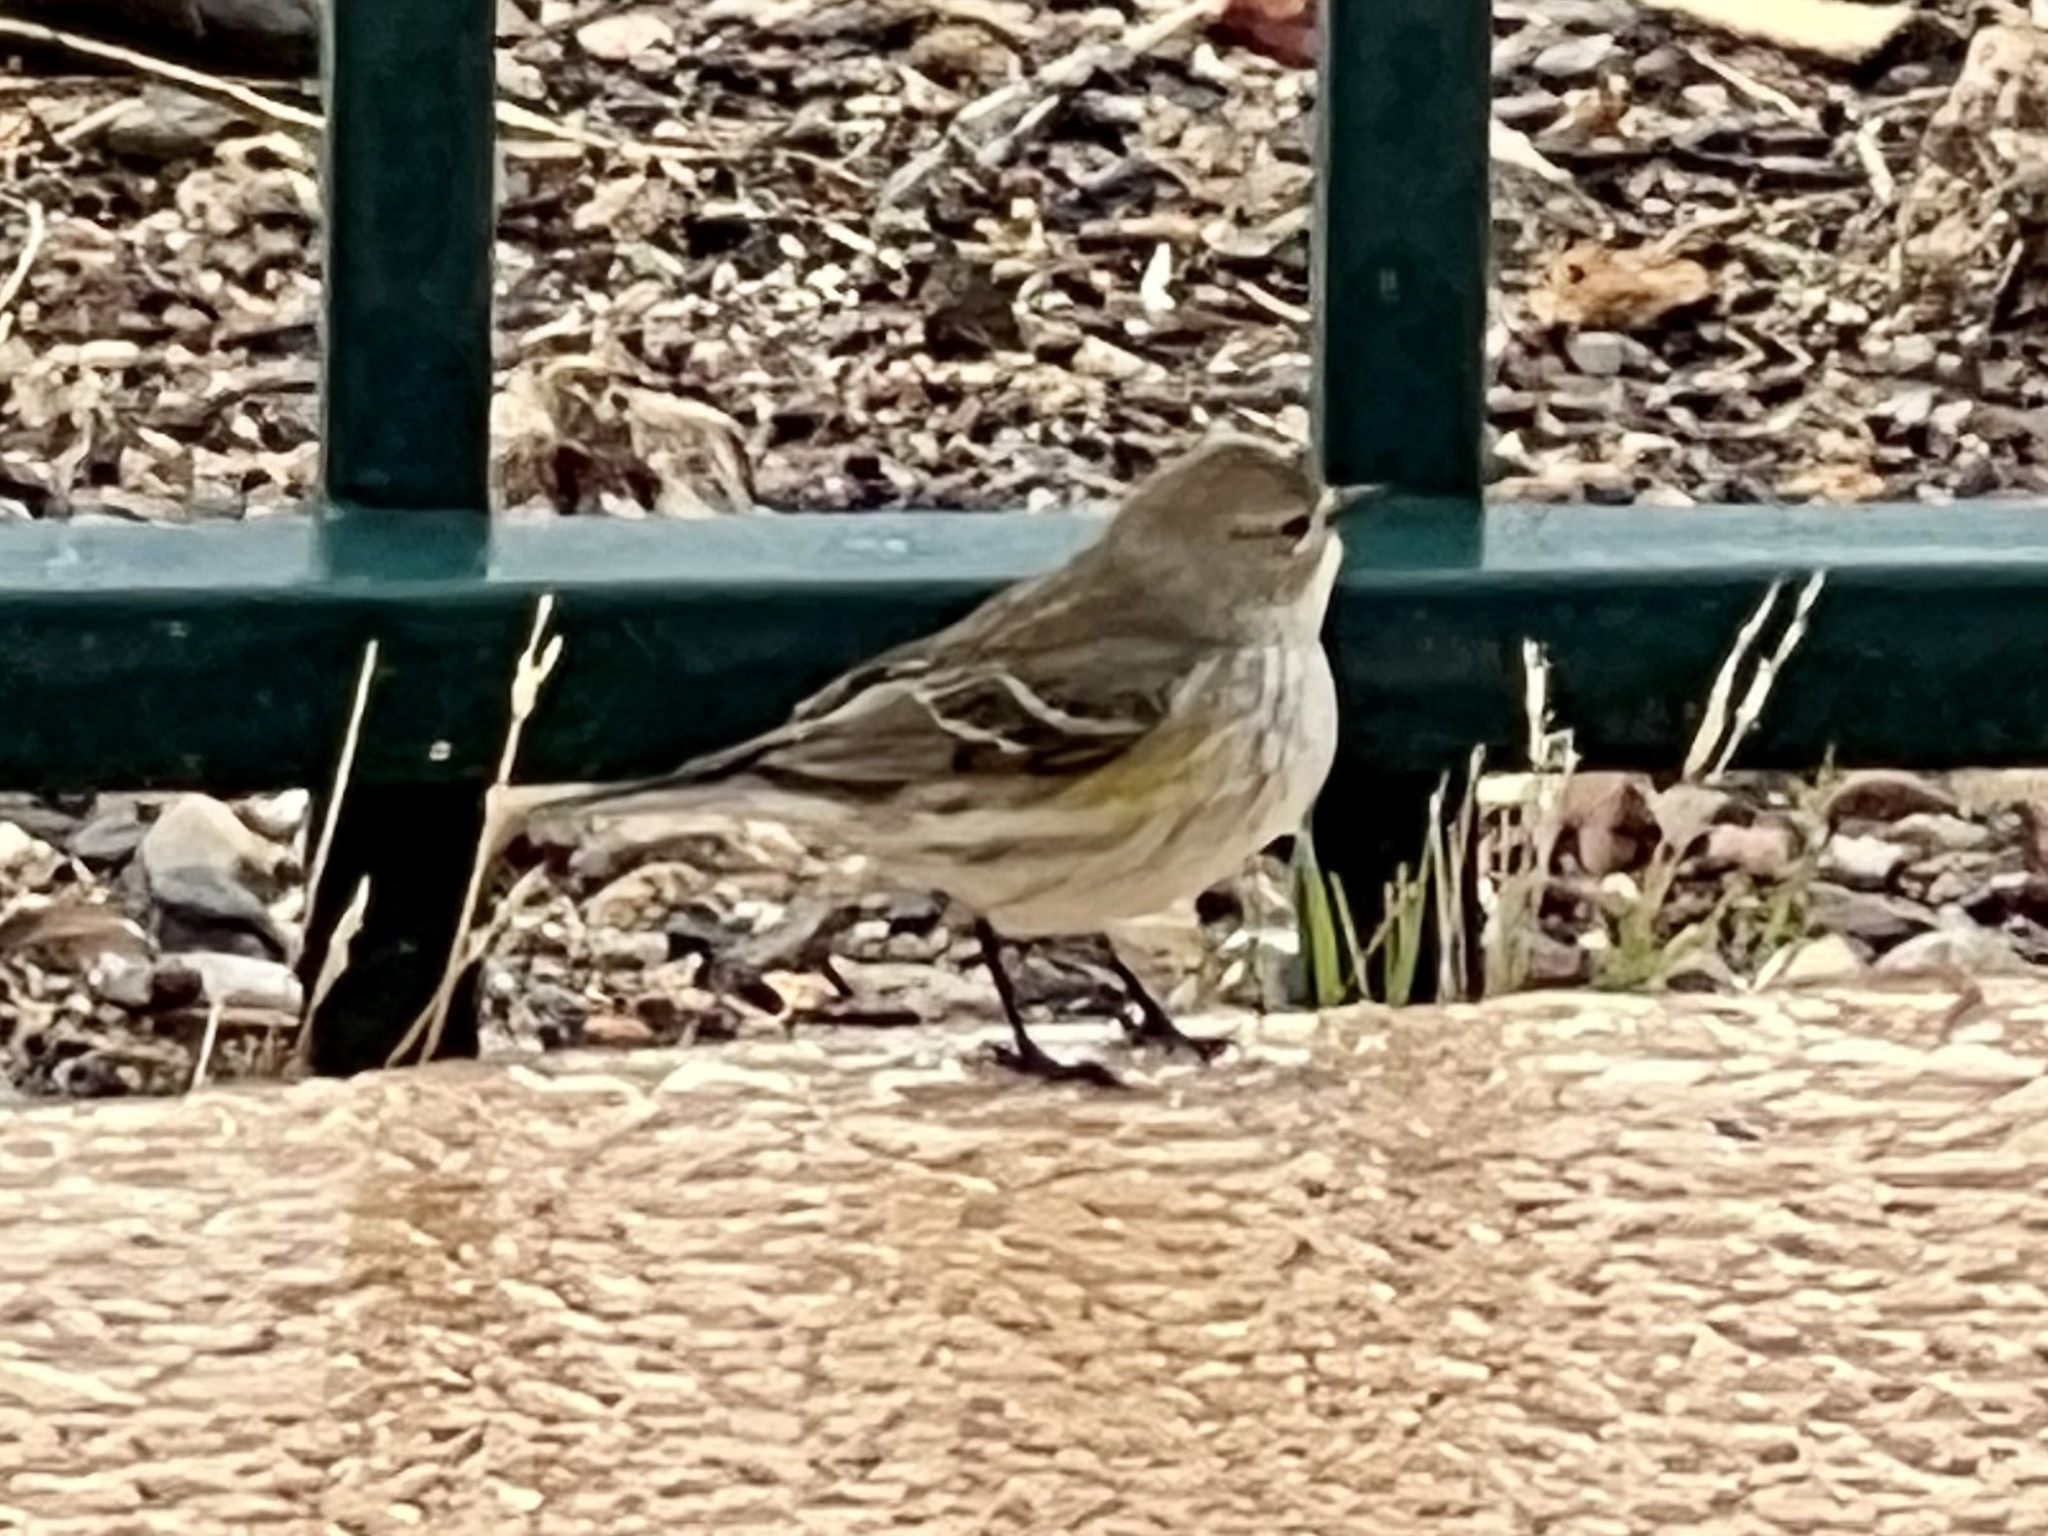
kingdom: Animalia
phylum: Chordata
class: Aves
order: Passeriformes
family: Parulidae
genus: Setophaga
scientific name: Setophaga coronata
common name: Myrtle warbler
